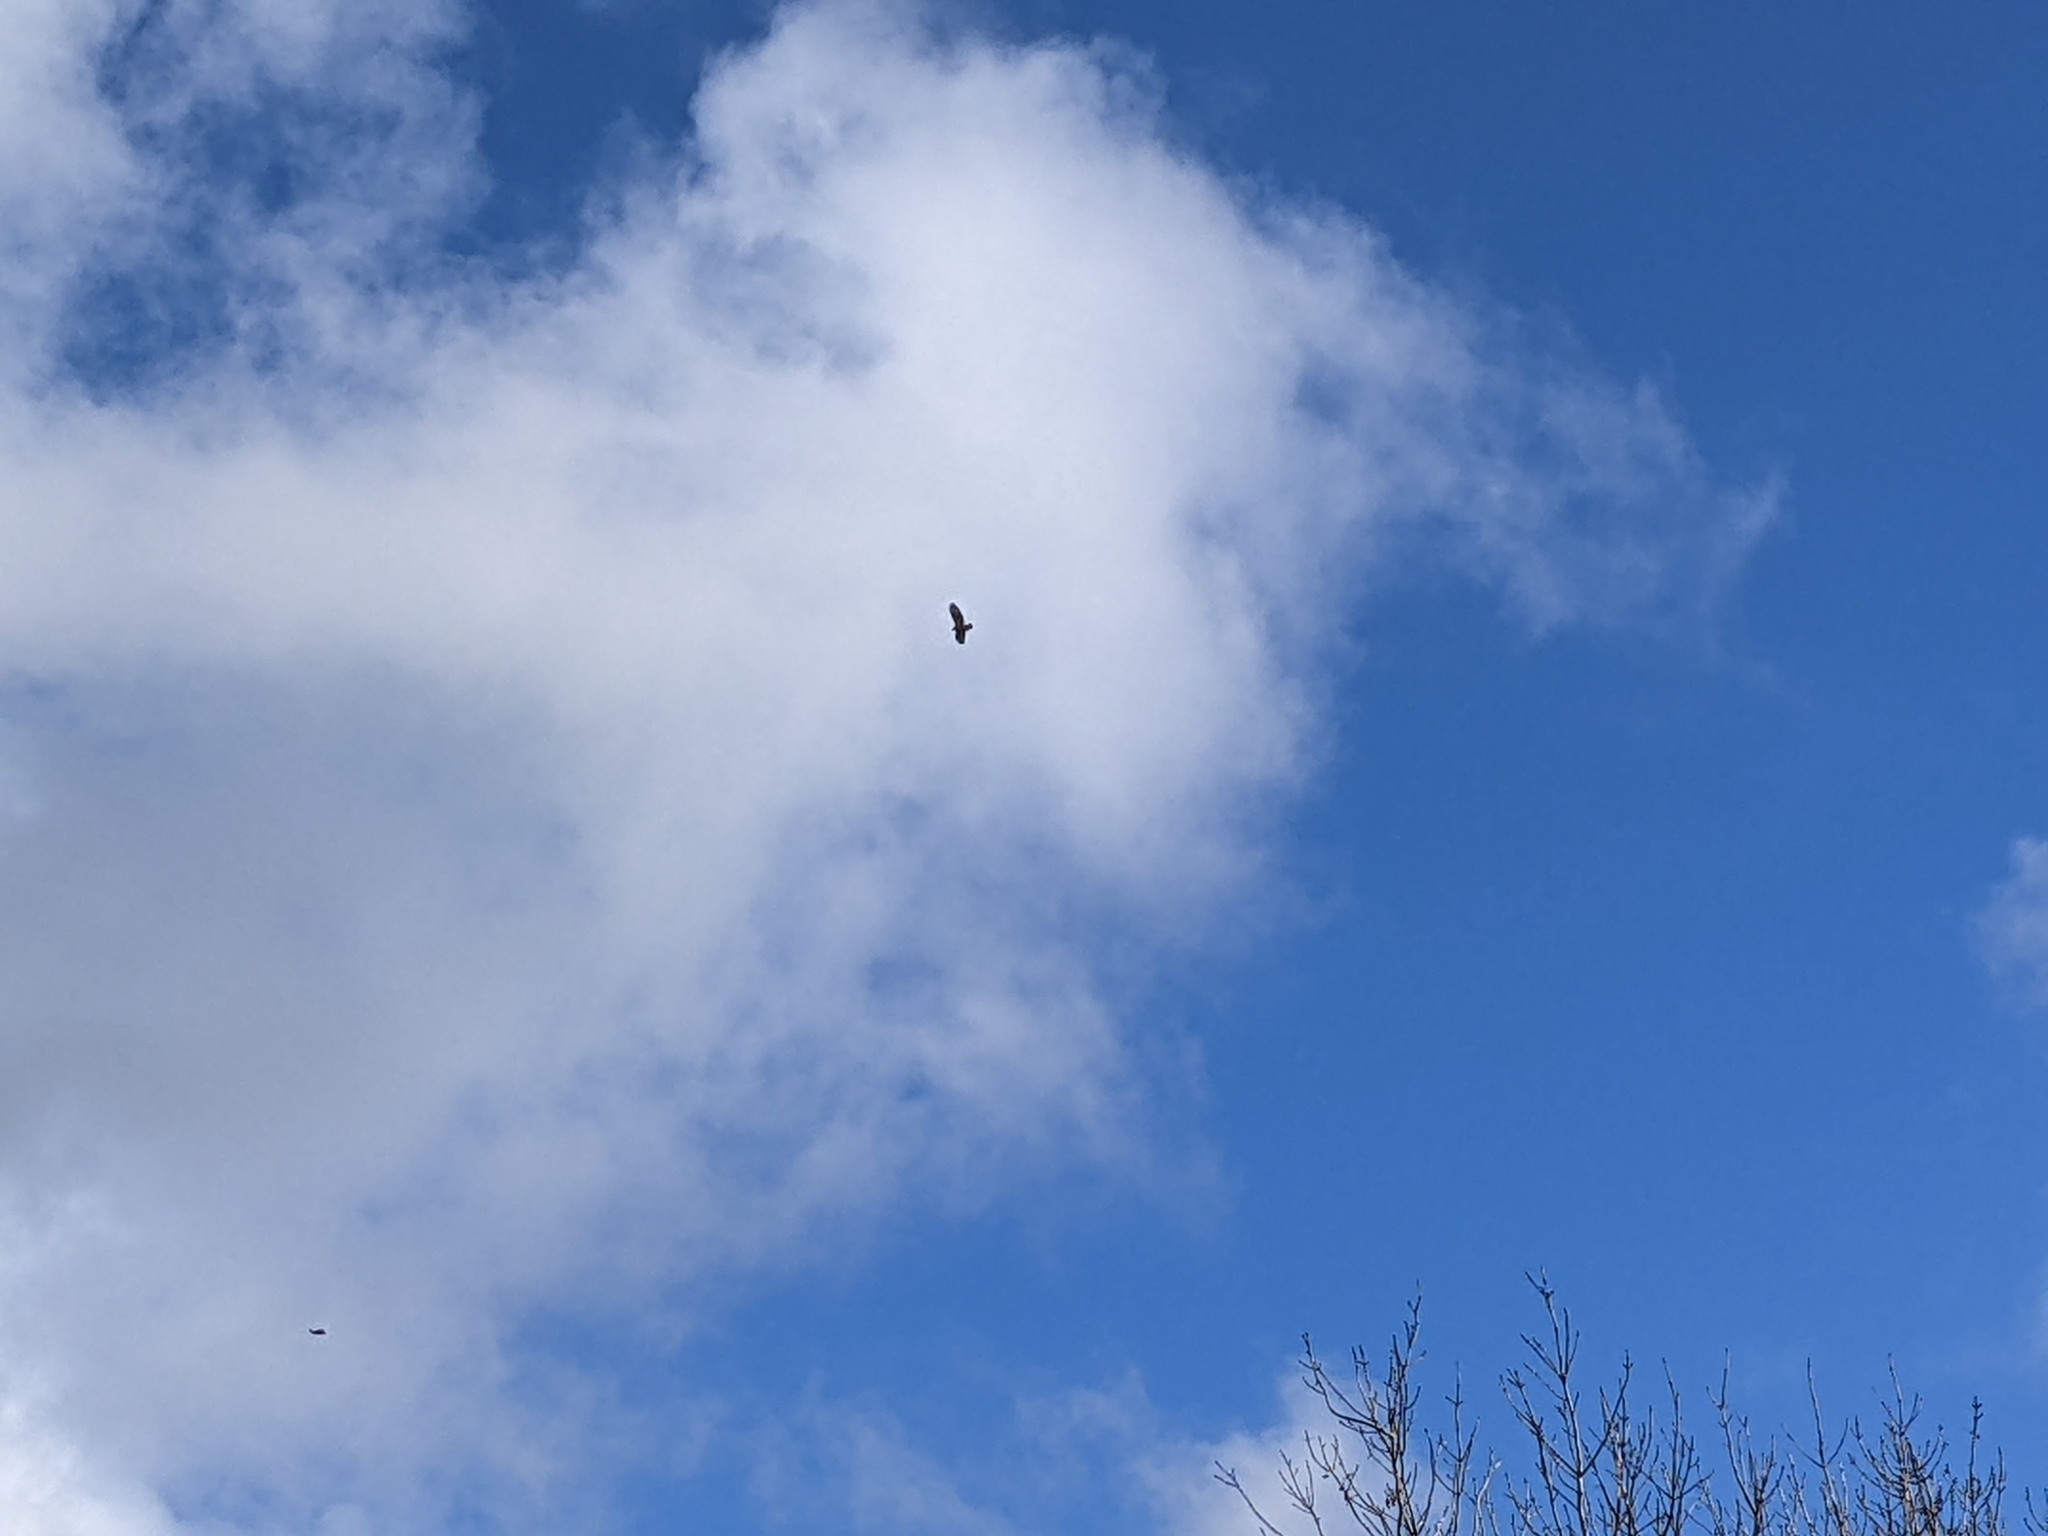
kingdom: Animalia
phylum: Chordata
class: Aves
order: Accipitriformes
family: Accipitridae
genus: Buteo
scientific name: Buteo buteo
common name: Common buzzard
